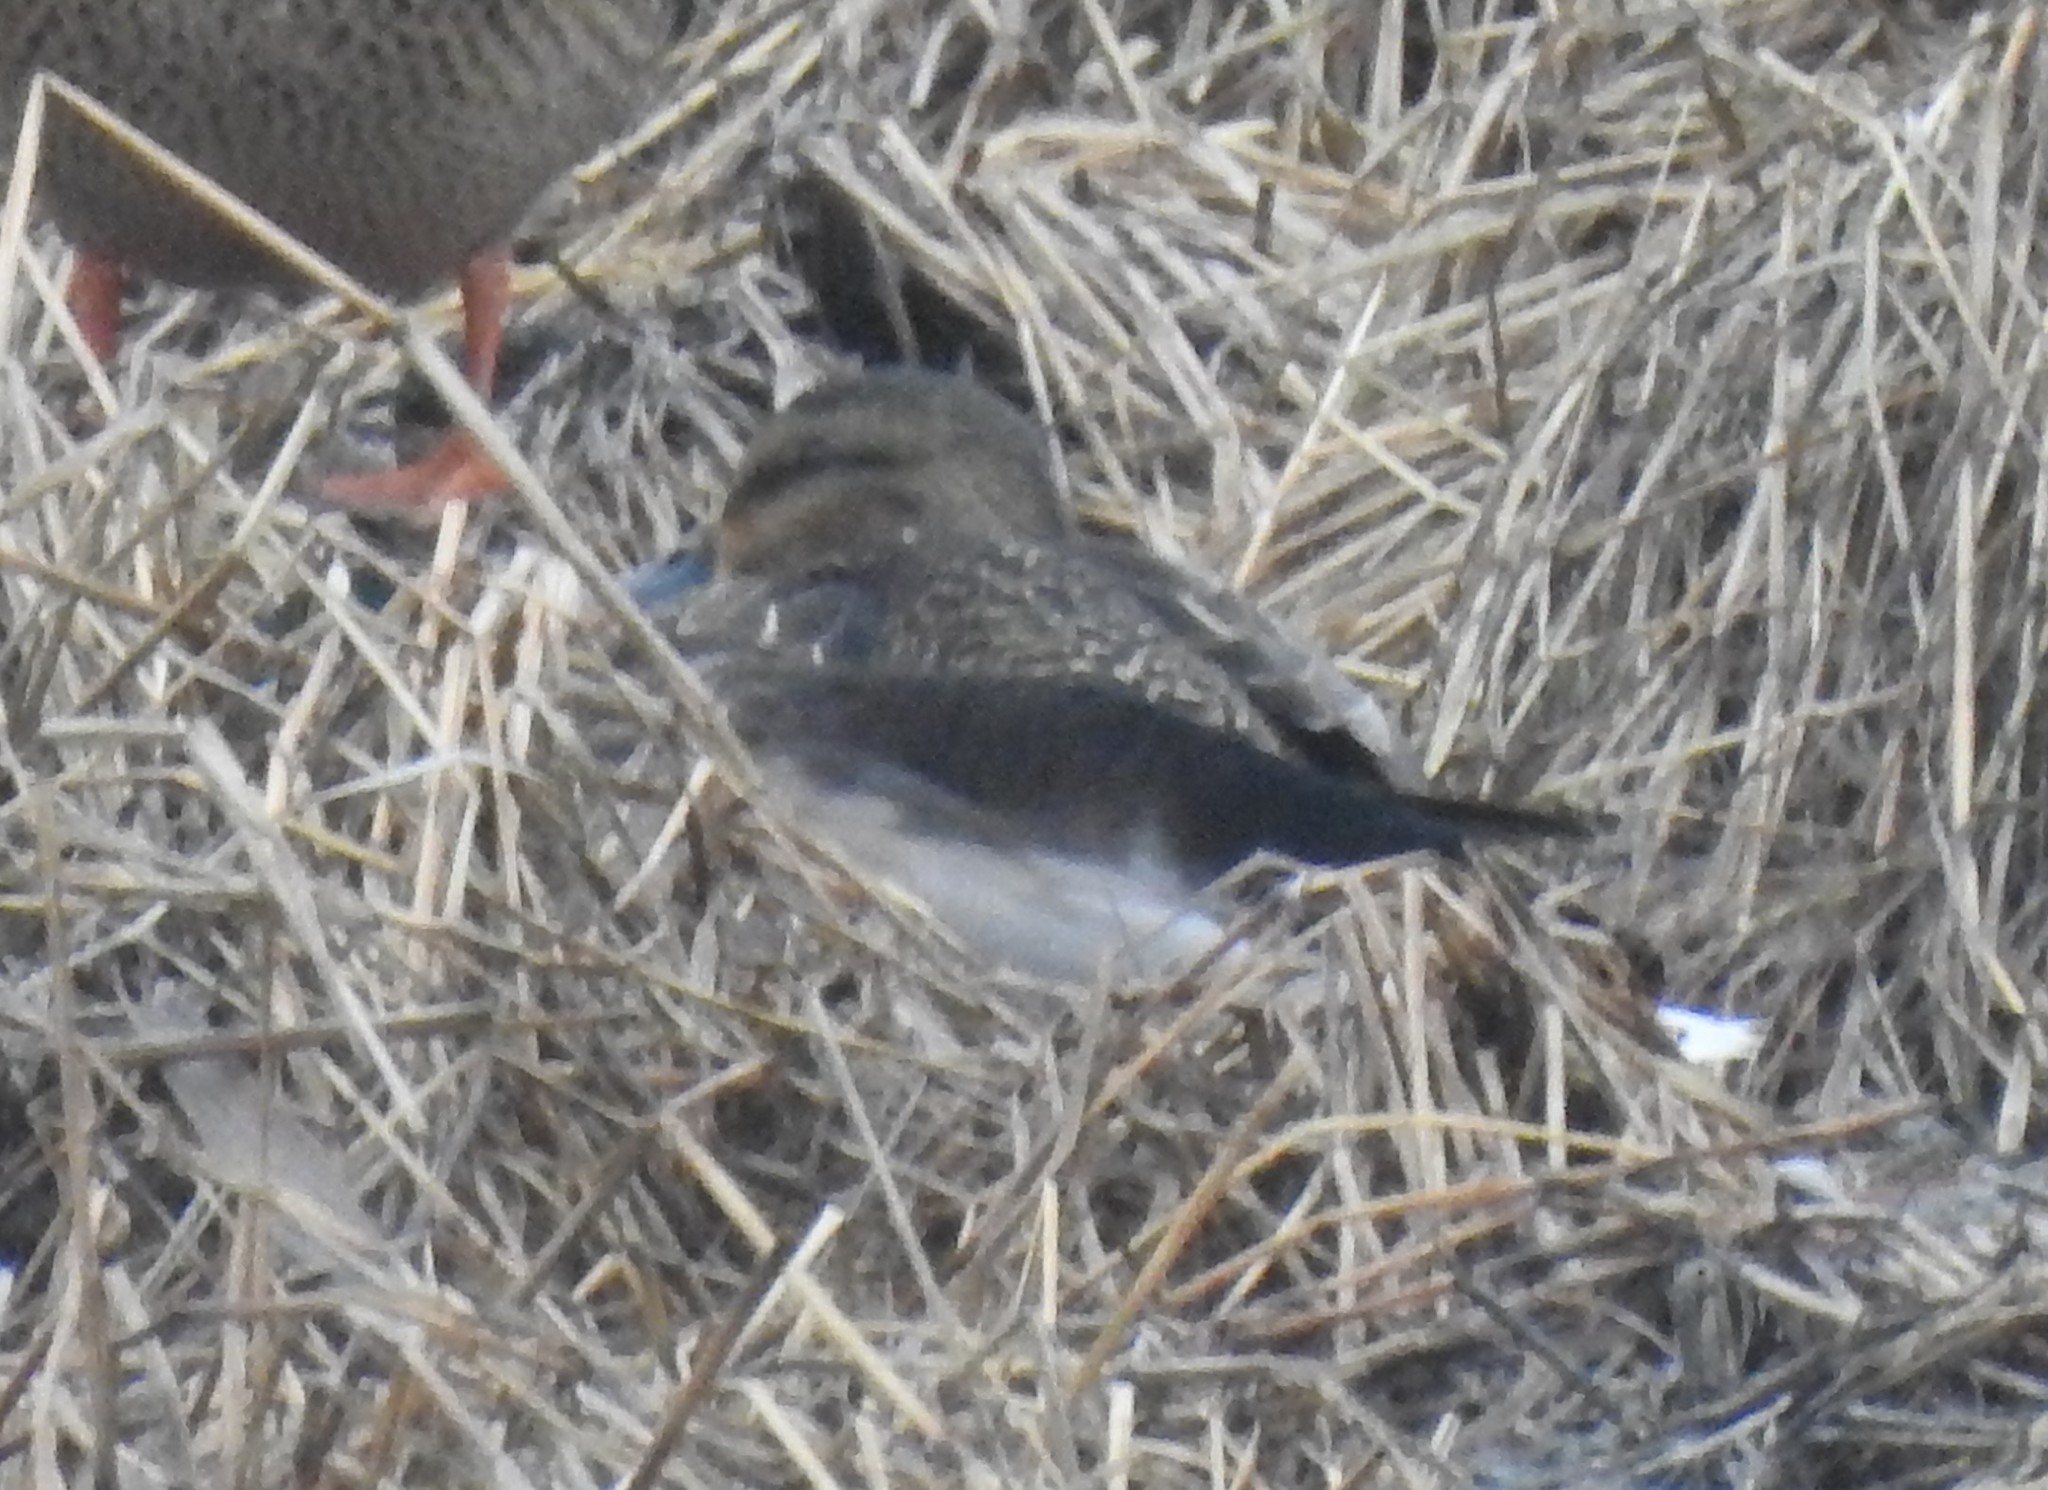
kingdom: Animalia
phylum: Chordata
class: Aves
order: Charadriiformes
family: Charadriidae
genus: Charadrius
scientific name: Charadrius vociferus
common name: Killdeer
